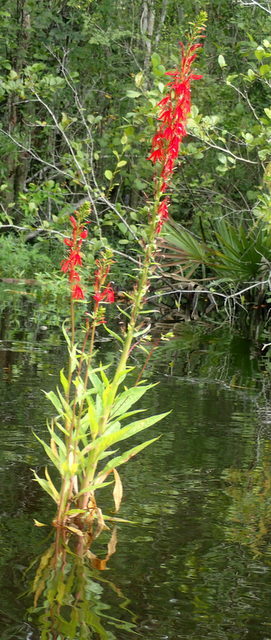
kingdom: Plantae
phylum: Tracheophyta
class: Magnoliopsida
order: Asterales
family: Campanulaceae
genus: Lobelia
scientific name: Lobelia cardinalis
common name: Cardinal flower
